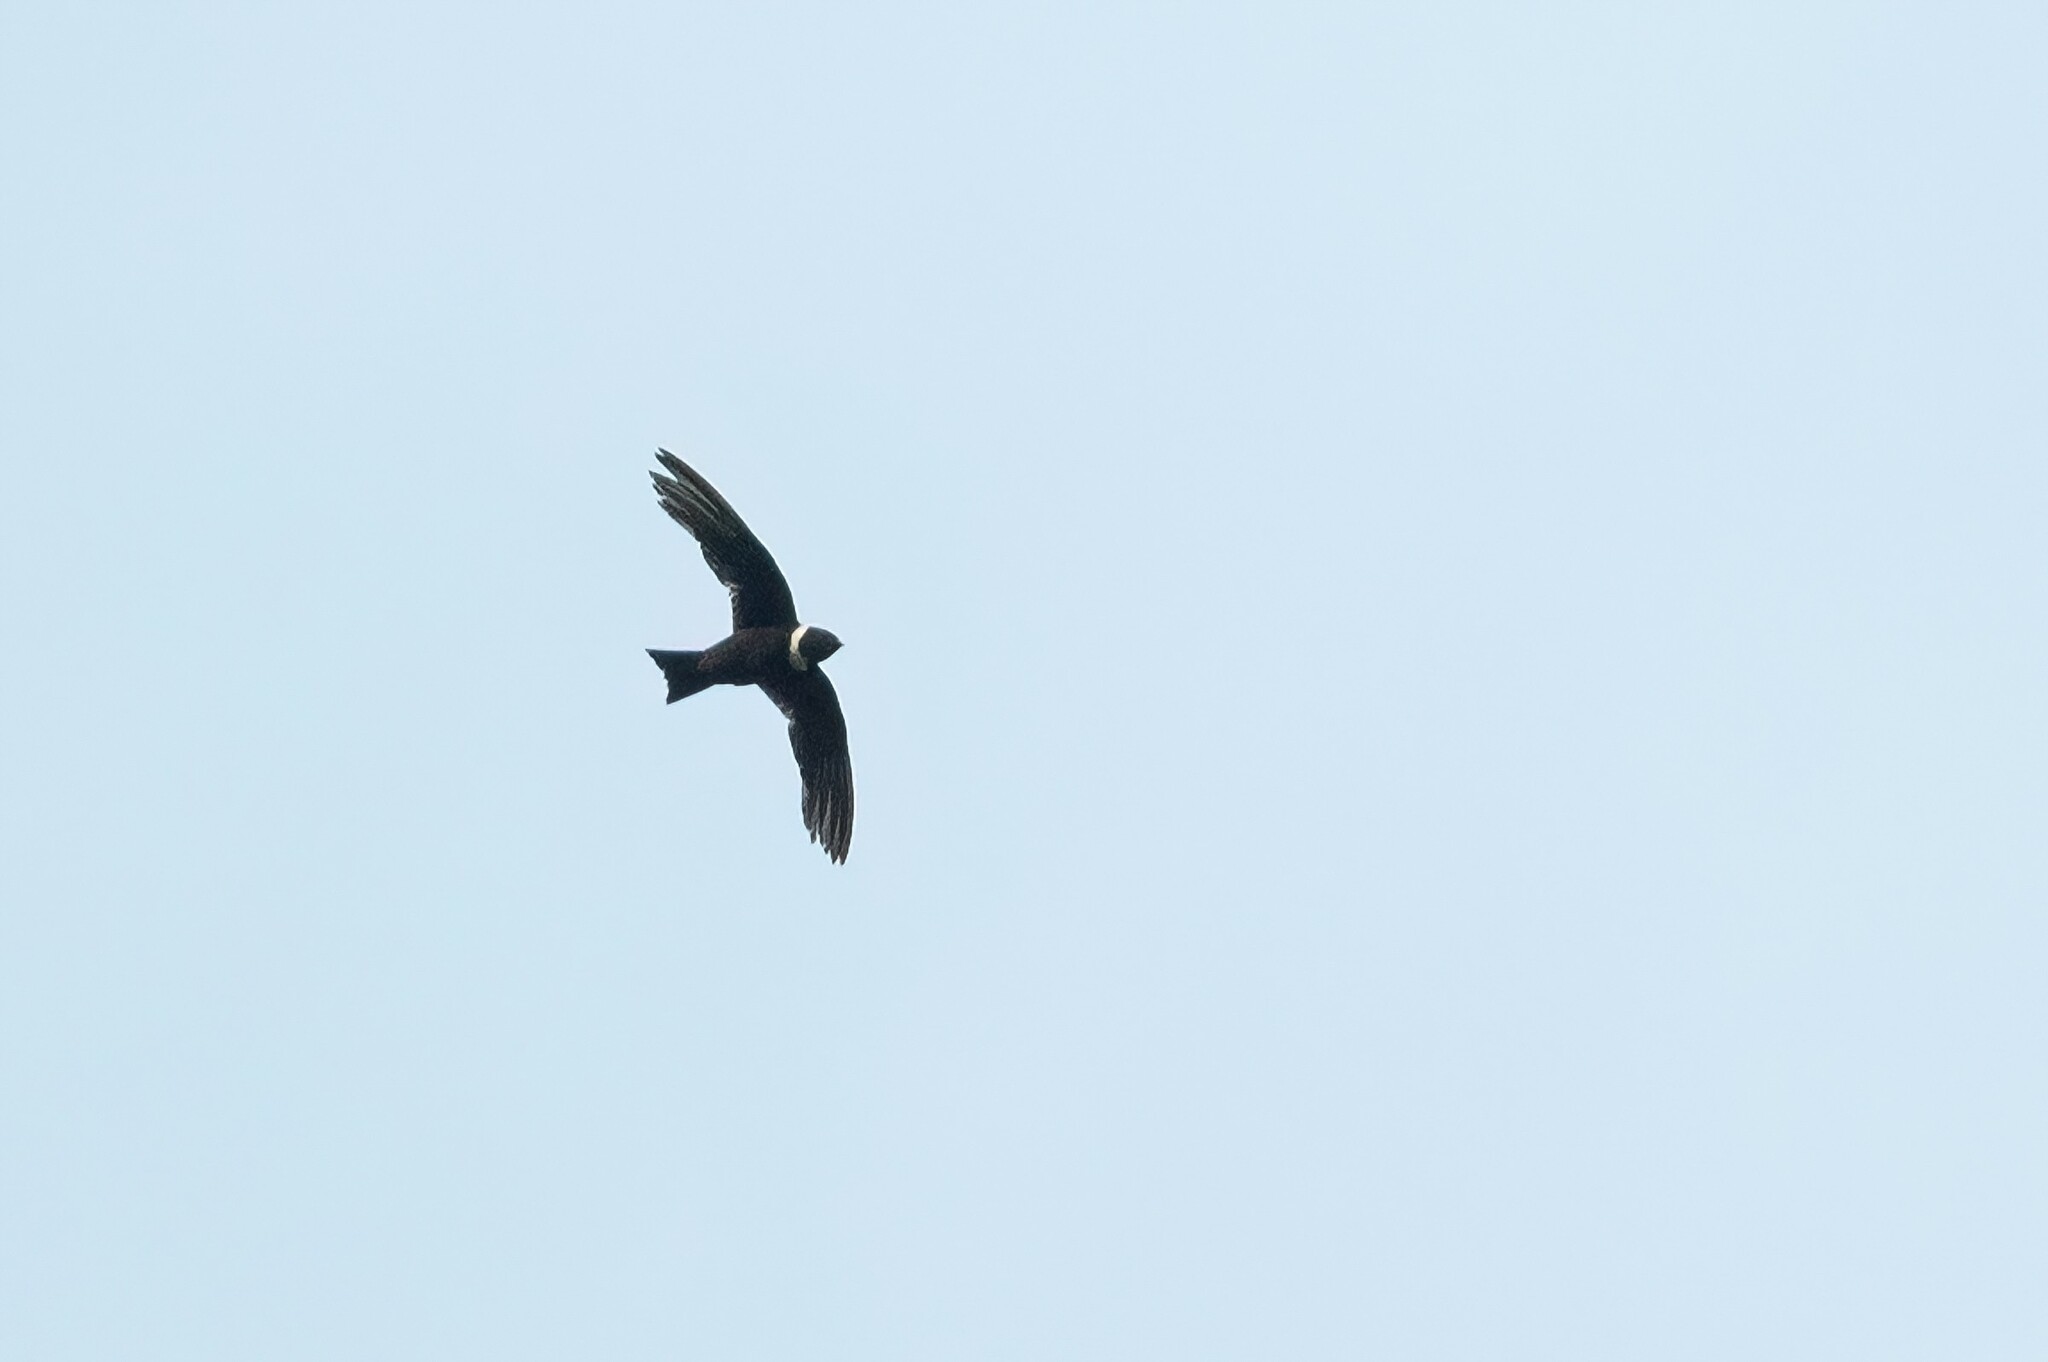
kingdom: Animalia
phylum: Chordata
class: Aves
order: Apodiformes
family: Apodidae
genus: Streptoprocne
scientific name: Streptoprocne zonaris
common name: White-collared swift
